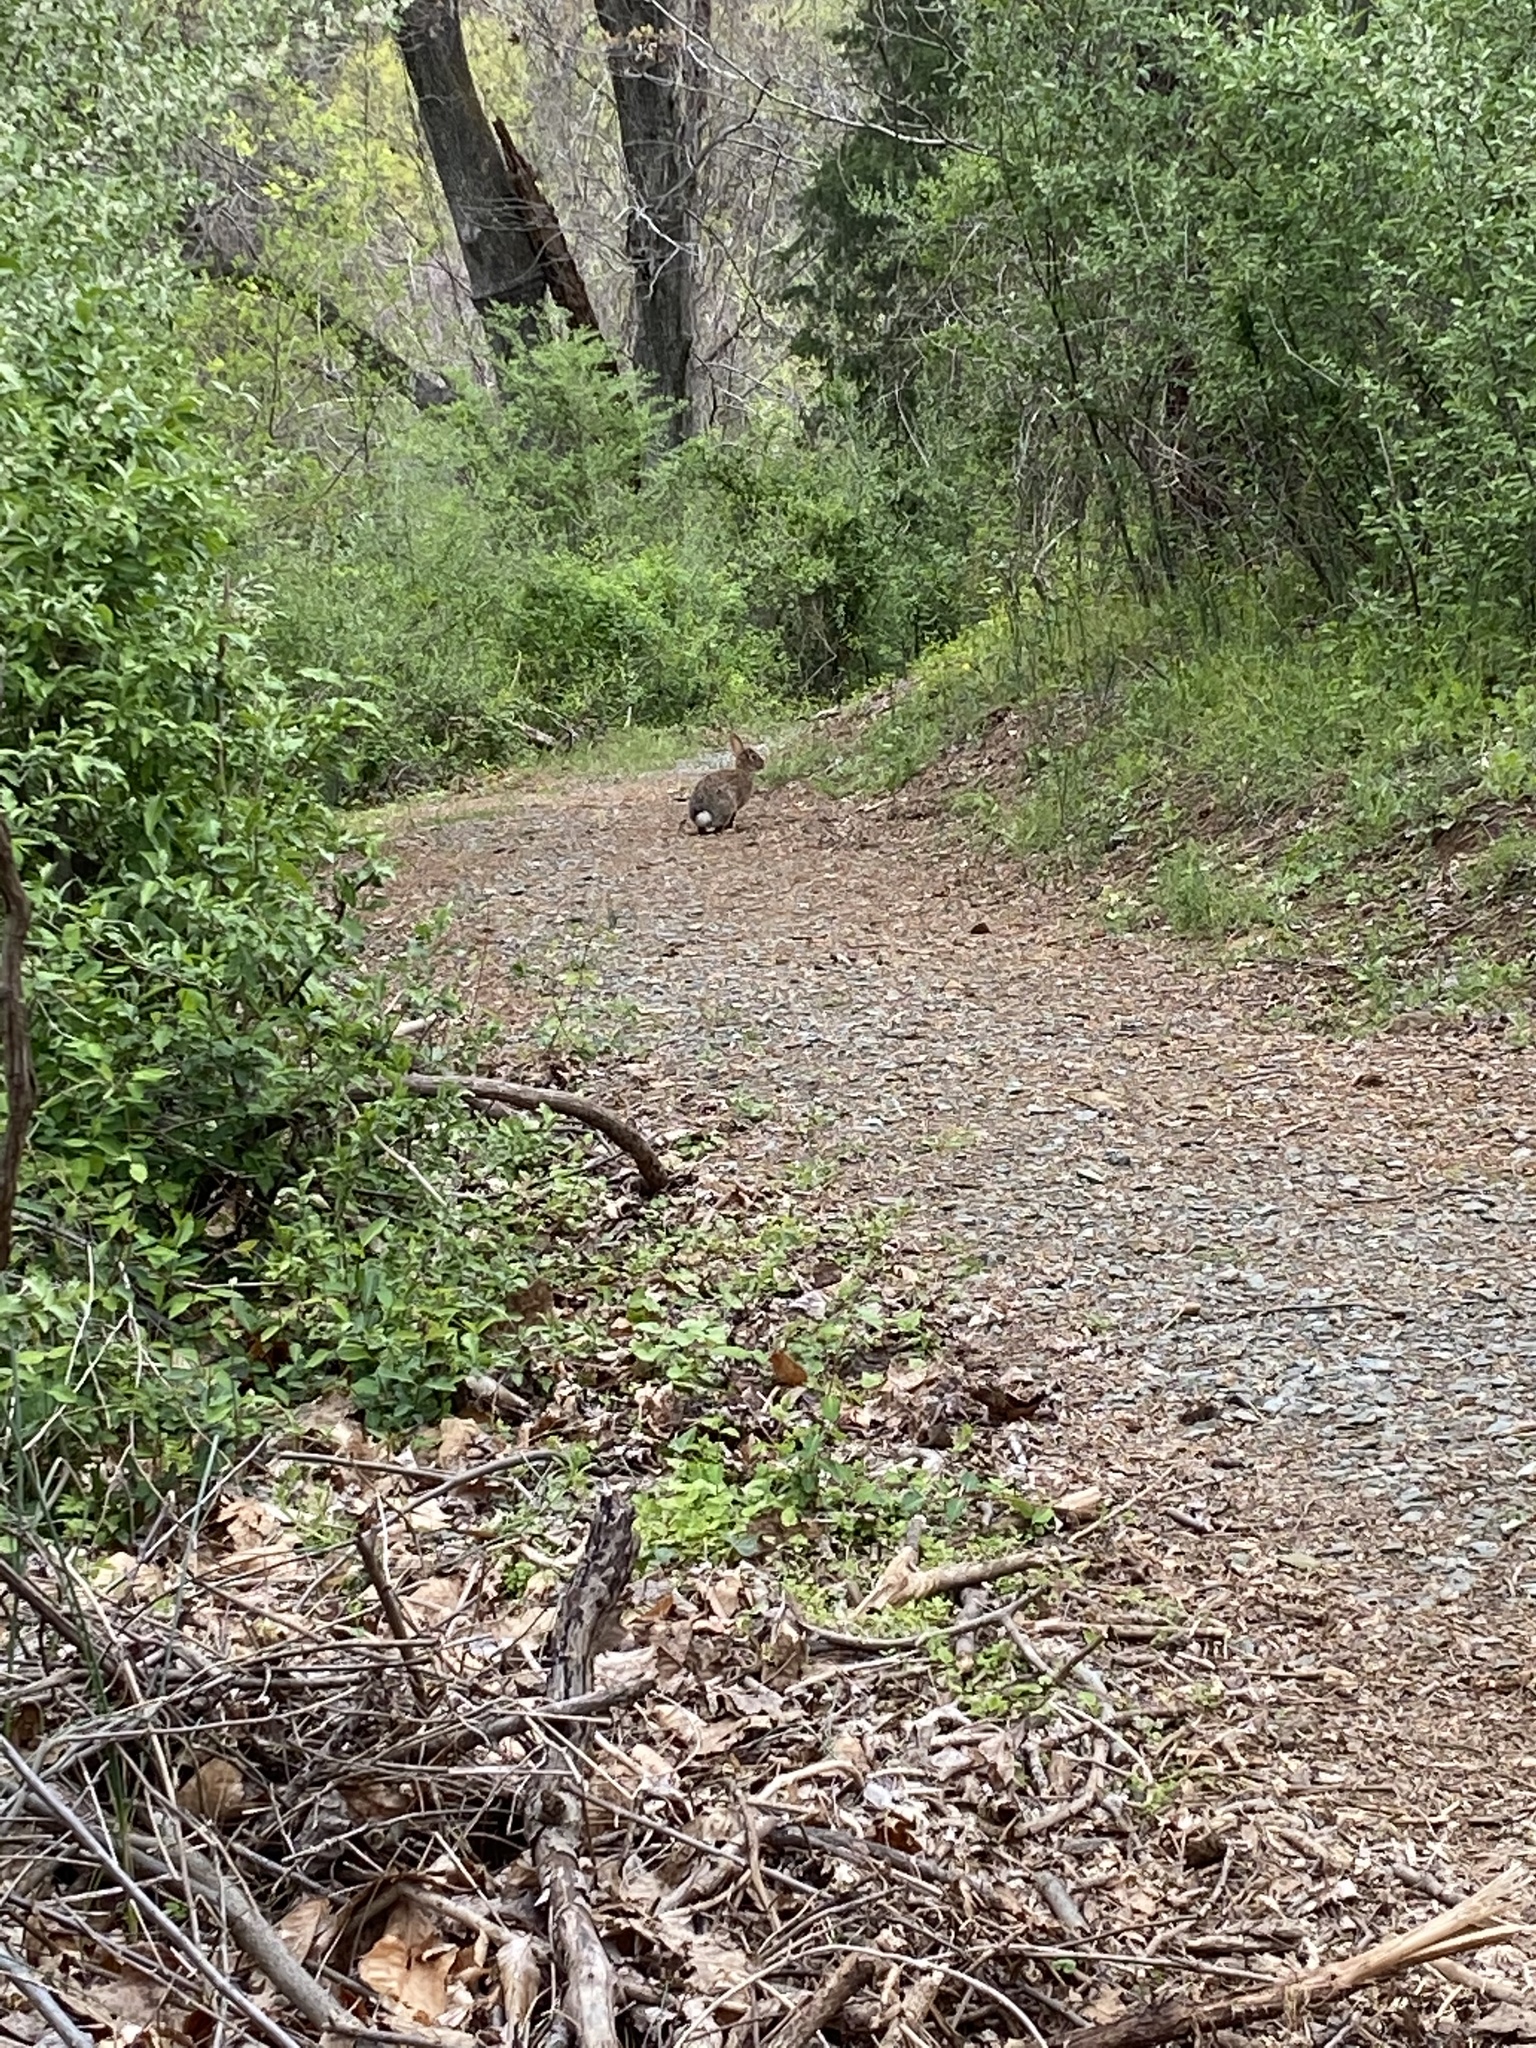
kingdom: Animalia
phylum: Chordata
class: Mammalia
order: Lagomorpha
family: Leporidae
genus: Sylvilagus
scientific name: Sylvilagus floridanus
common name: Eastern cottontail
